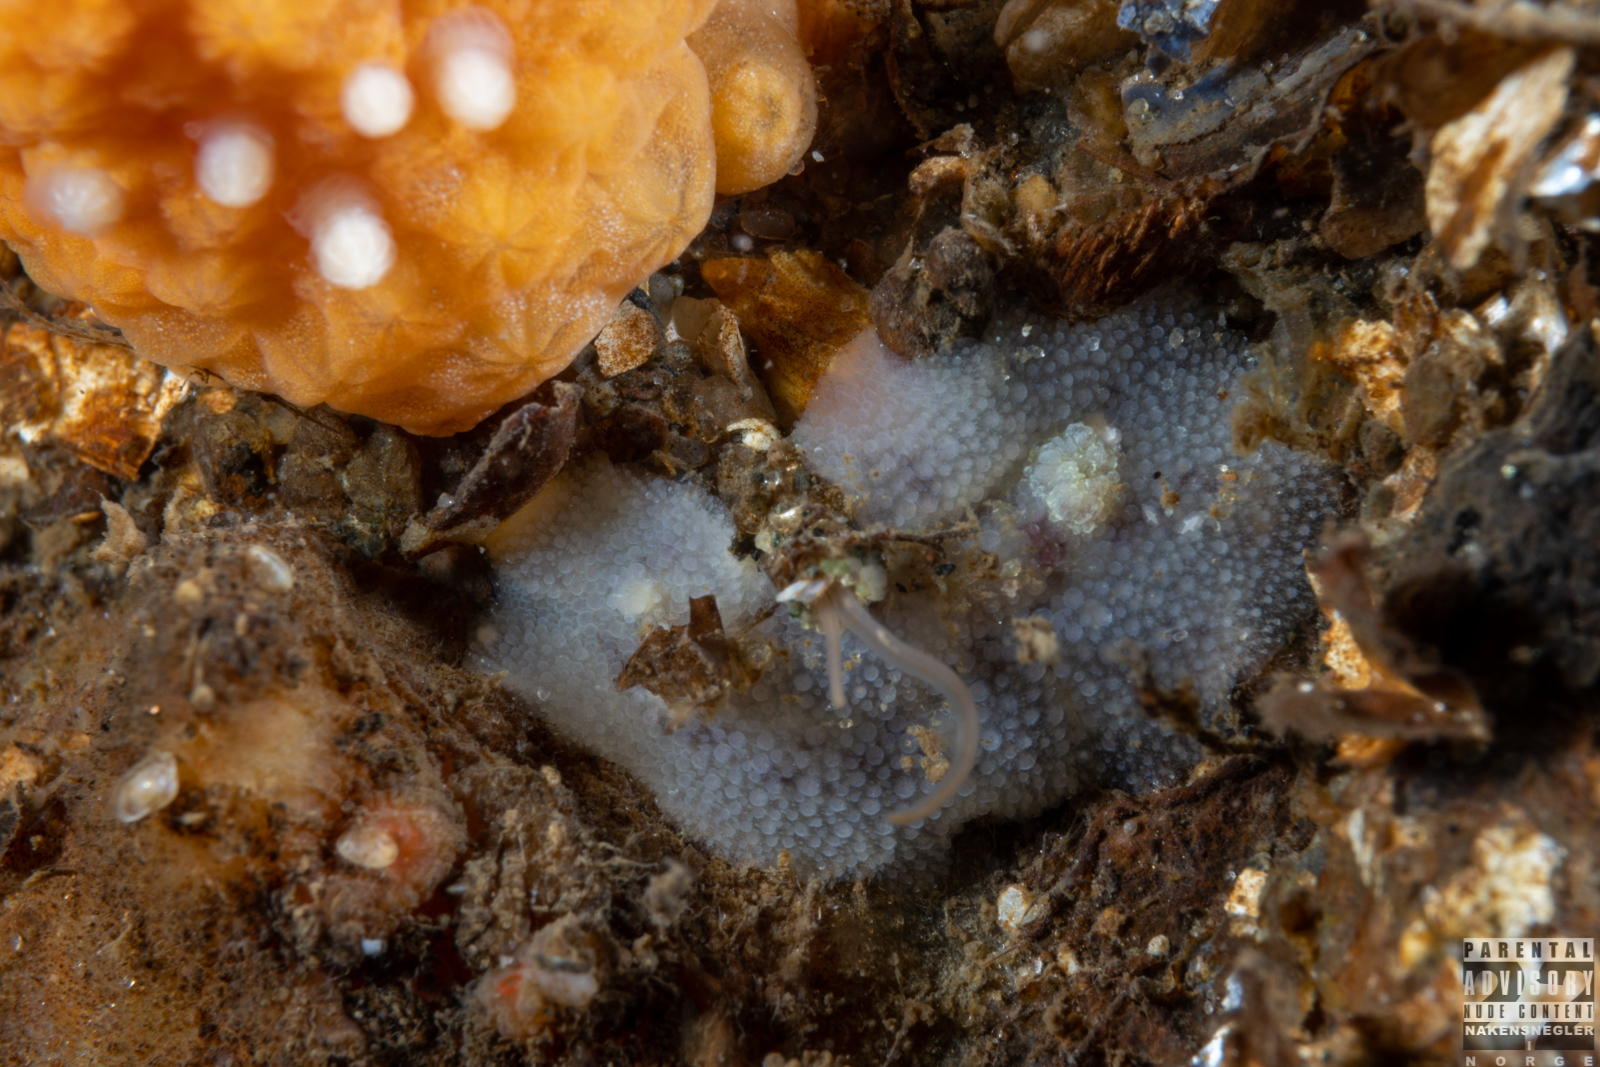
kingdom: Animalia
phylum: Mollusca
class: Gastropoda
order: Nudibranchia
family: Dorididae
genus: Doris
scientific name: Doris pseudoargus
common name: Sea lemon
